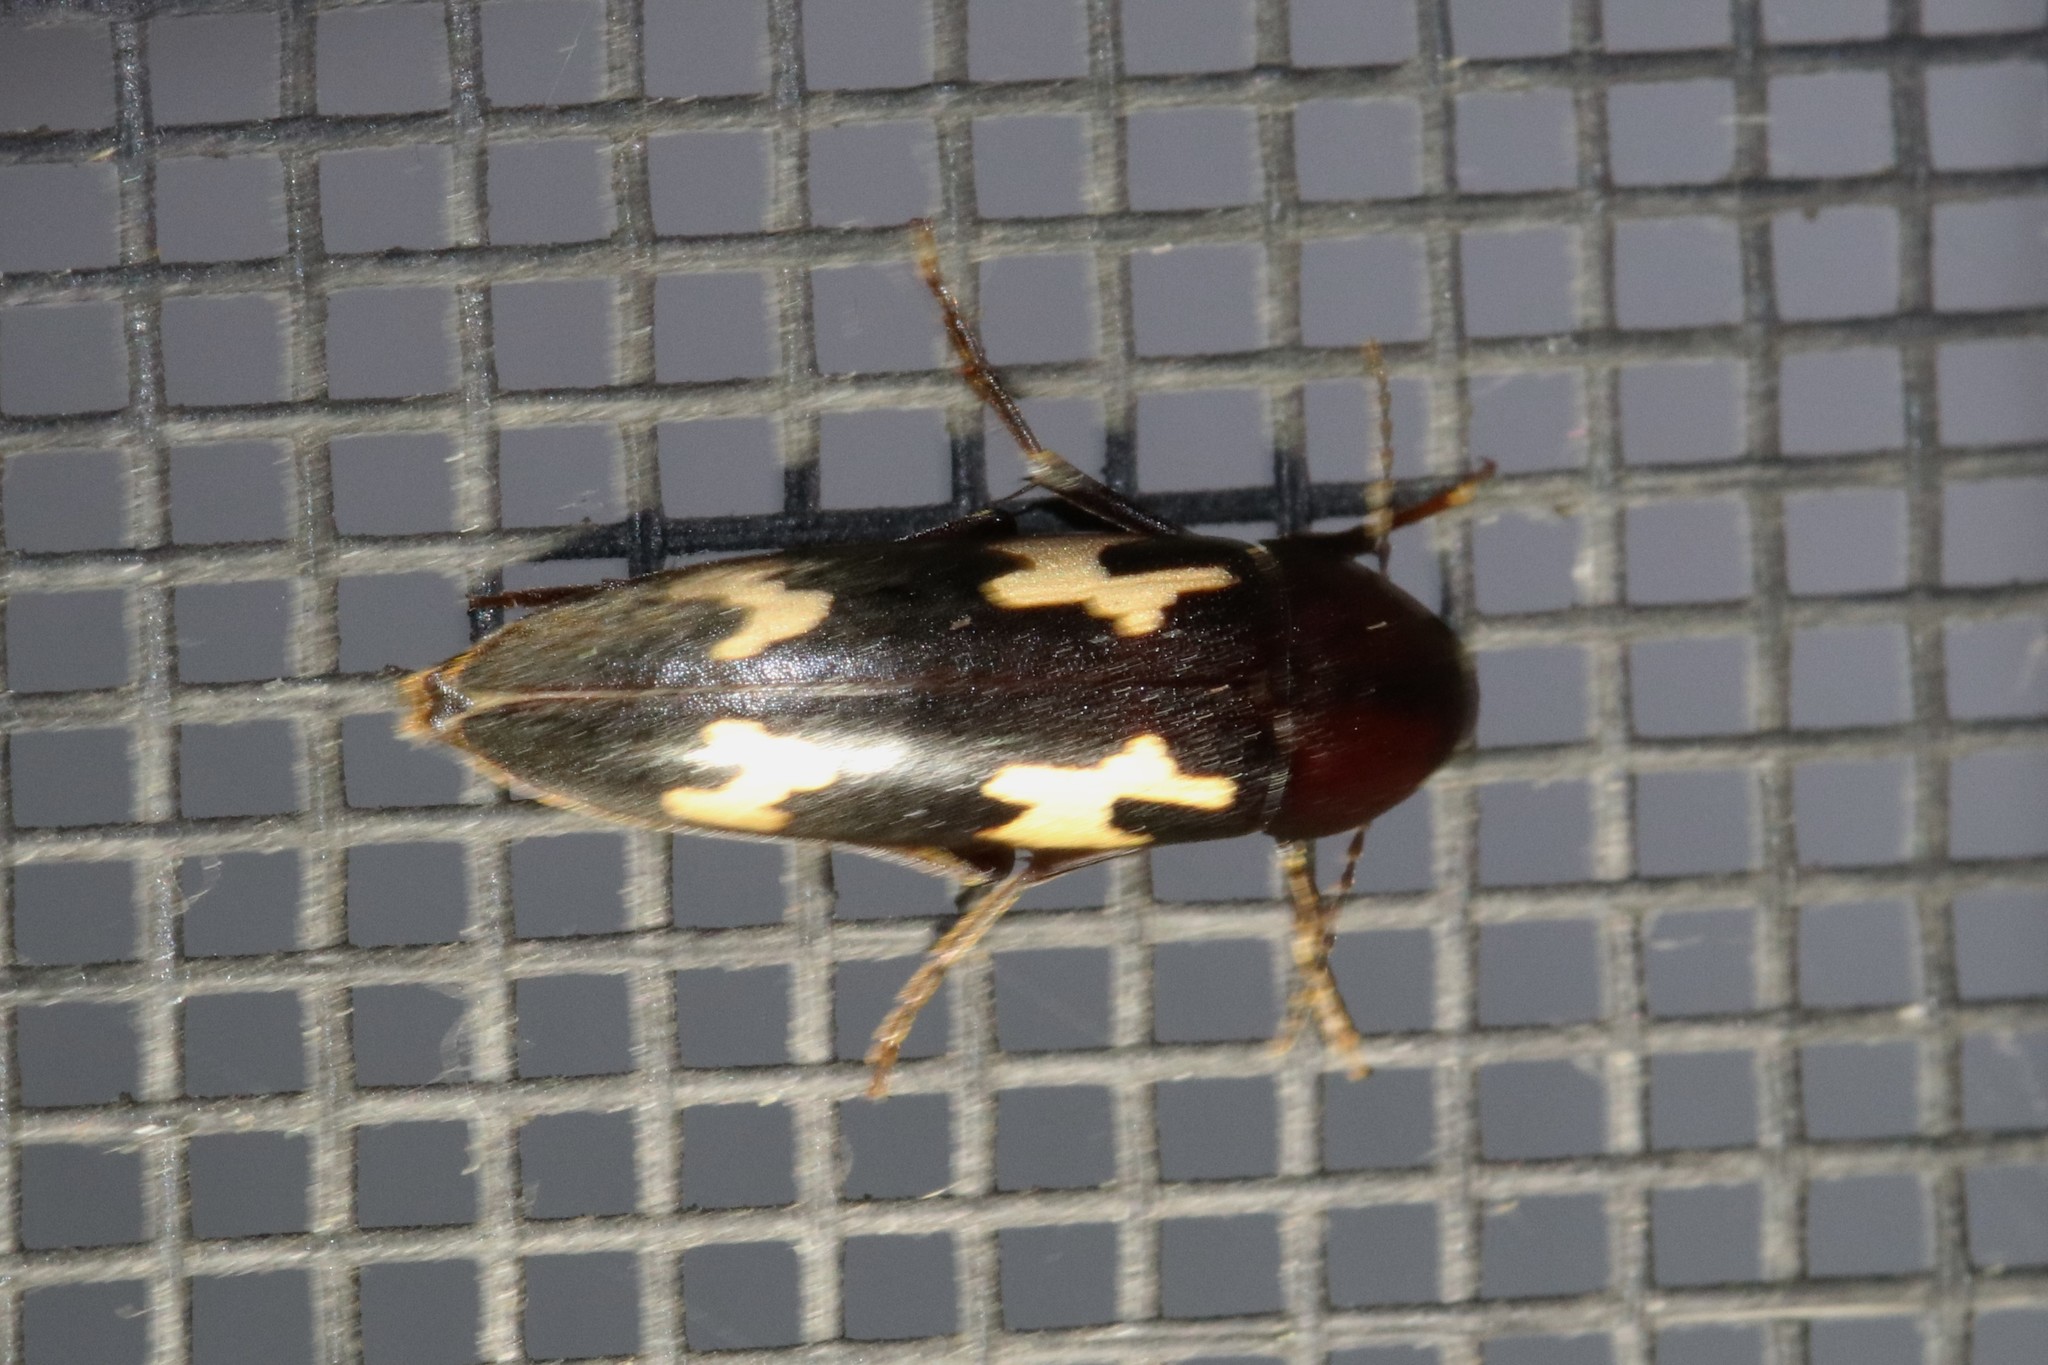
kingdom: Animalia
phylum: Arthropoda
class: Insecta
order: Coleoptera
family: Melandryidae
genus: Dircaea
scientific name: Dircaea liturata
